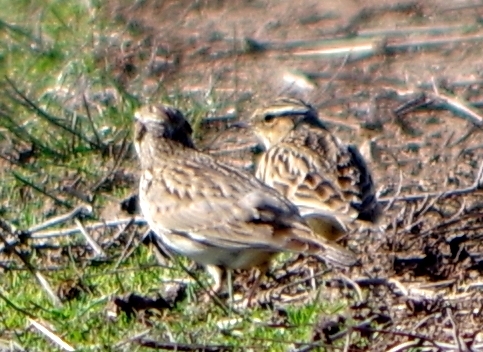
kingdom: Animalia
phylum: Chordata
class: Aves
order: Passeriformes
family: Alaudidae
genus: Lullula
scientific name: Lullula arborea
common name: Woodlark
